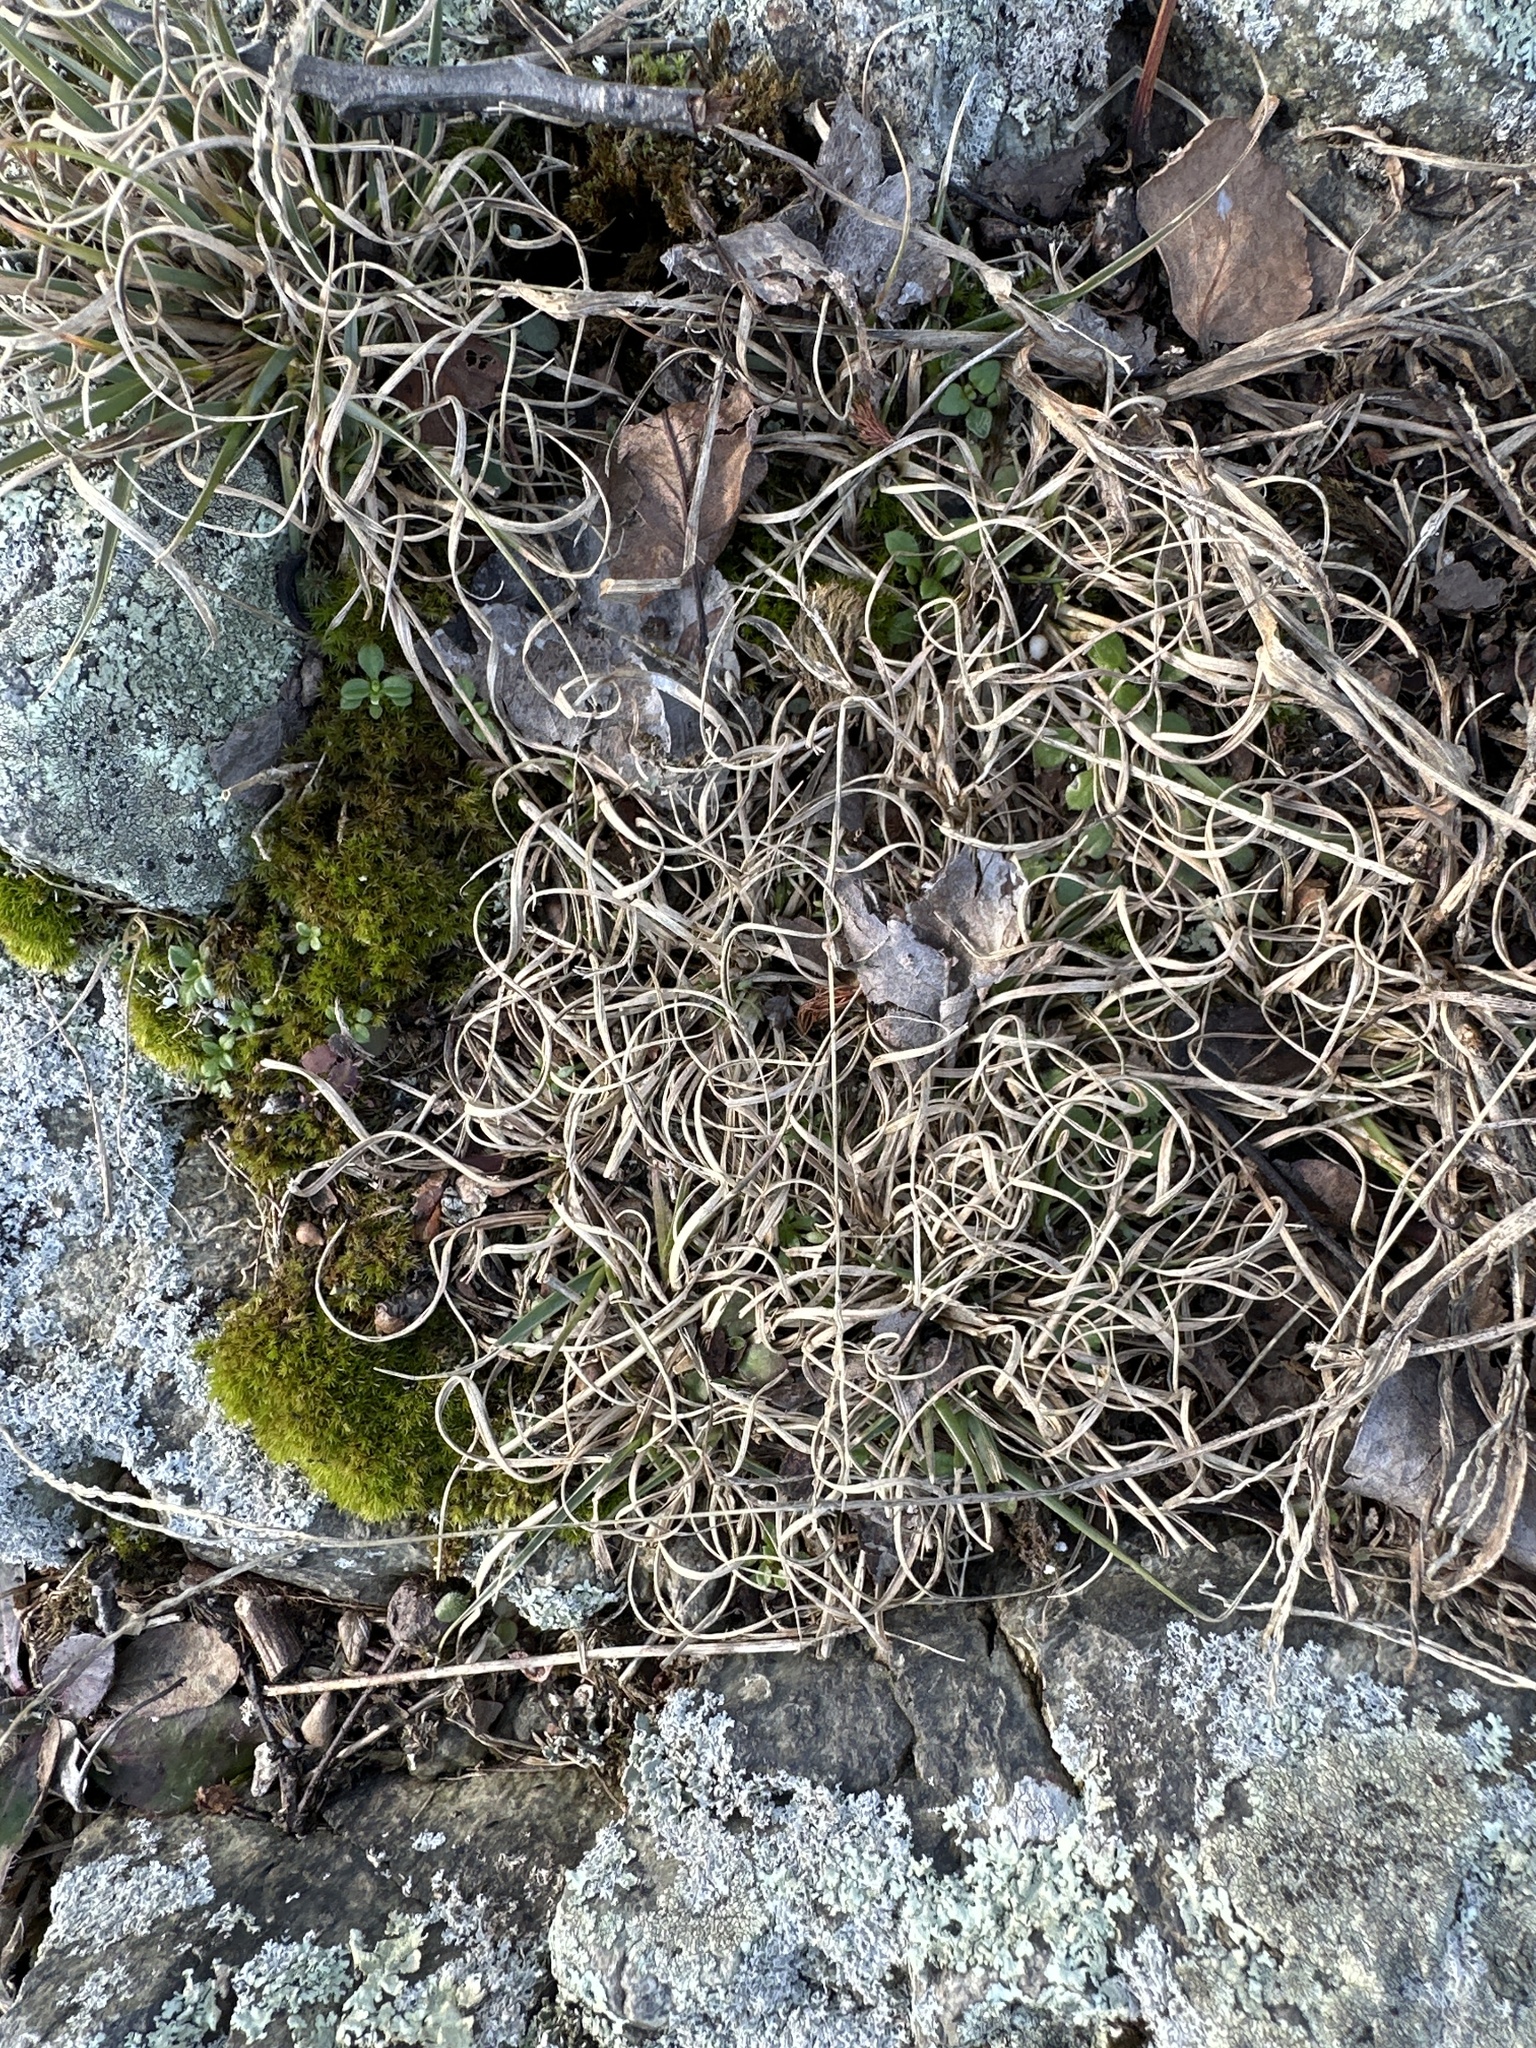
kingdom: Plantae
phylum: Tracheophyta
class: Liliopsida
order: Poales
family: Poaceae
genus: Danthonia
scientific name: Danthonia spicata
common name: Common wild oatgrass
